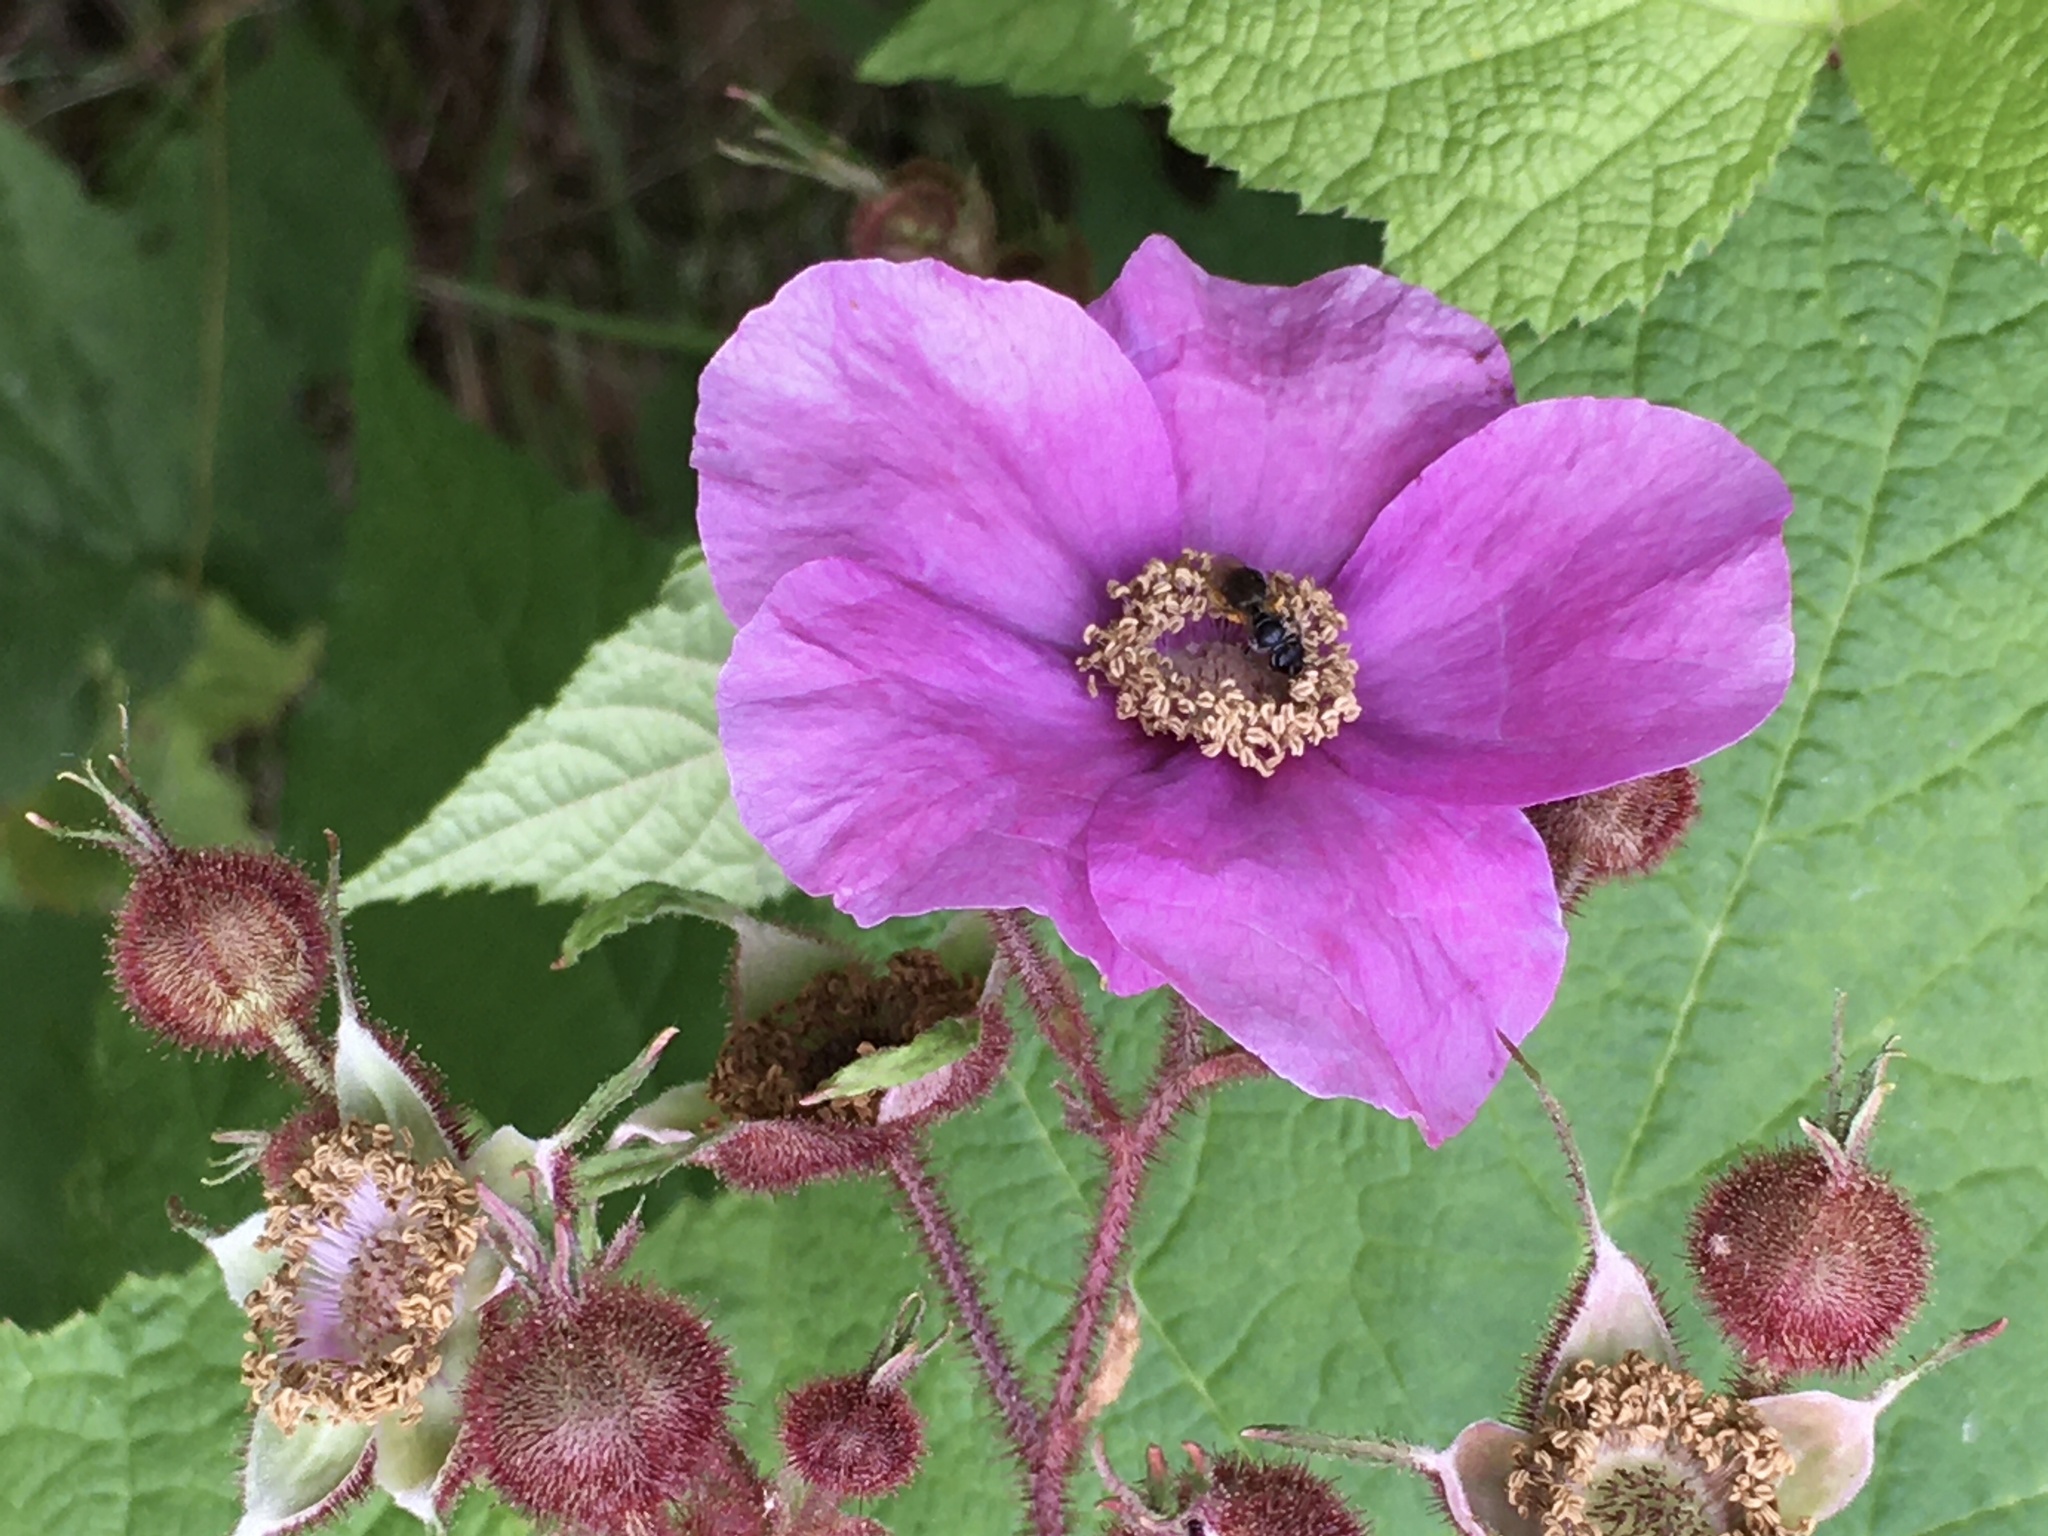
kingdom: Plantae
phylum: Tracheophyta
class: Magnoliopsida
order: Rosales
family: Rosaceae
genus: Rubus
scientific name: Rubus odoratus
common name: Purple-flowered raspberry
